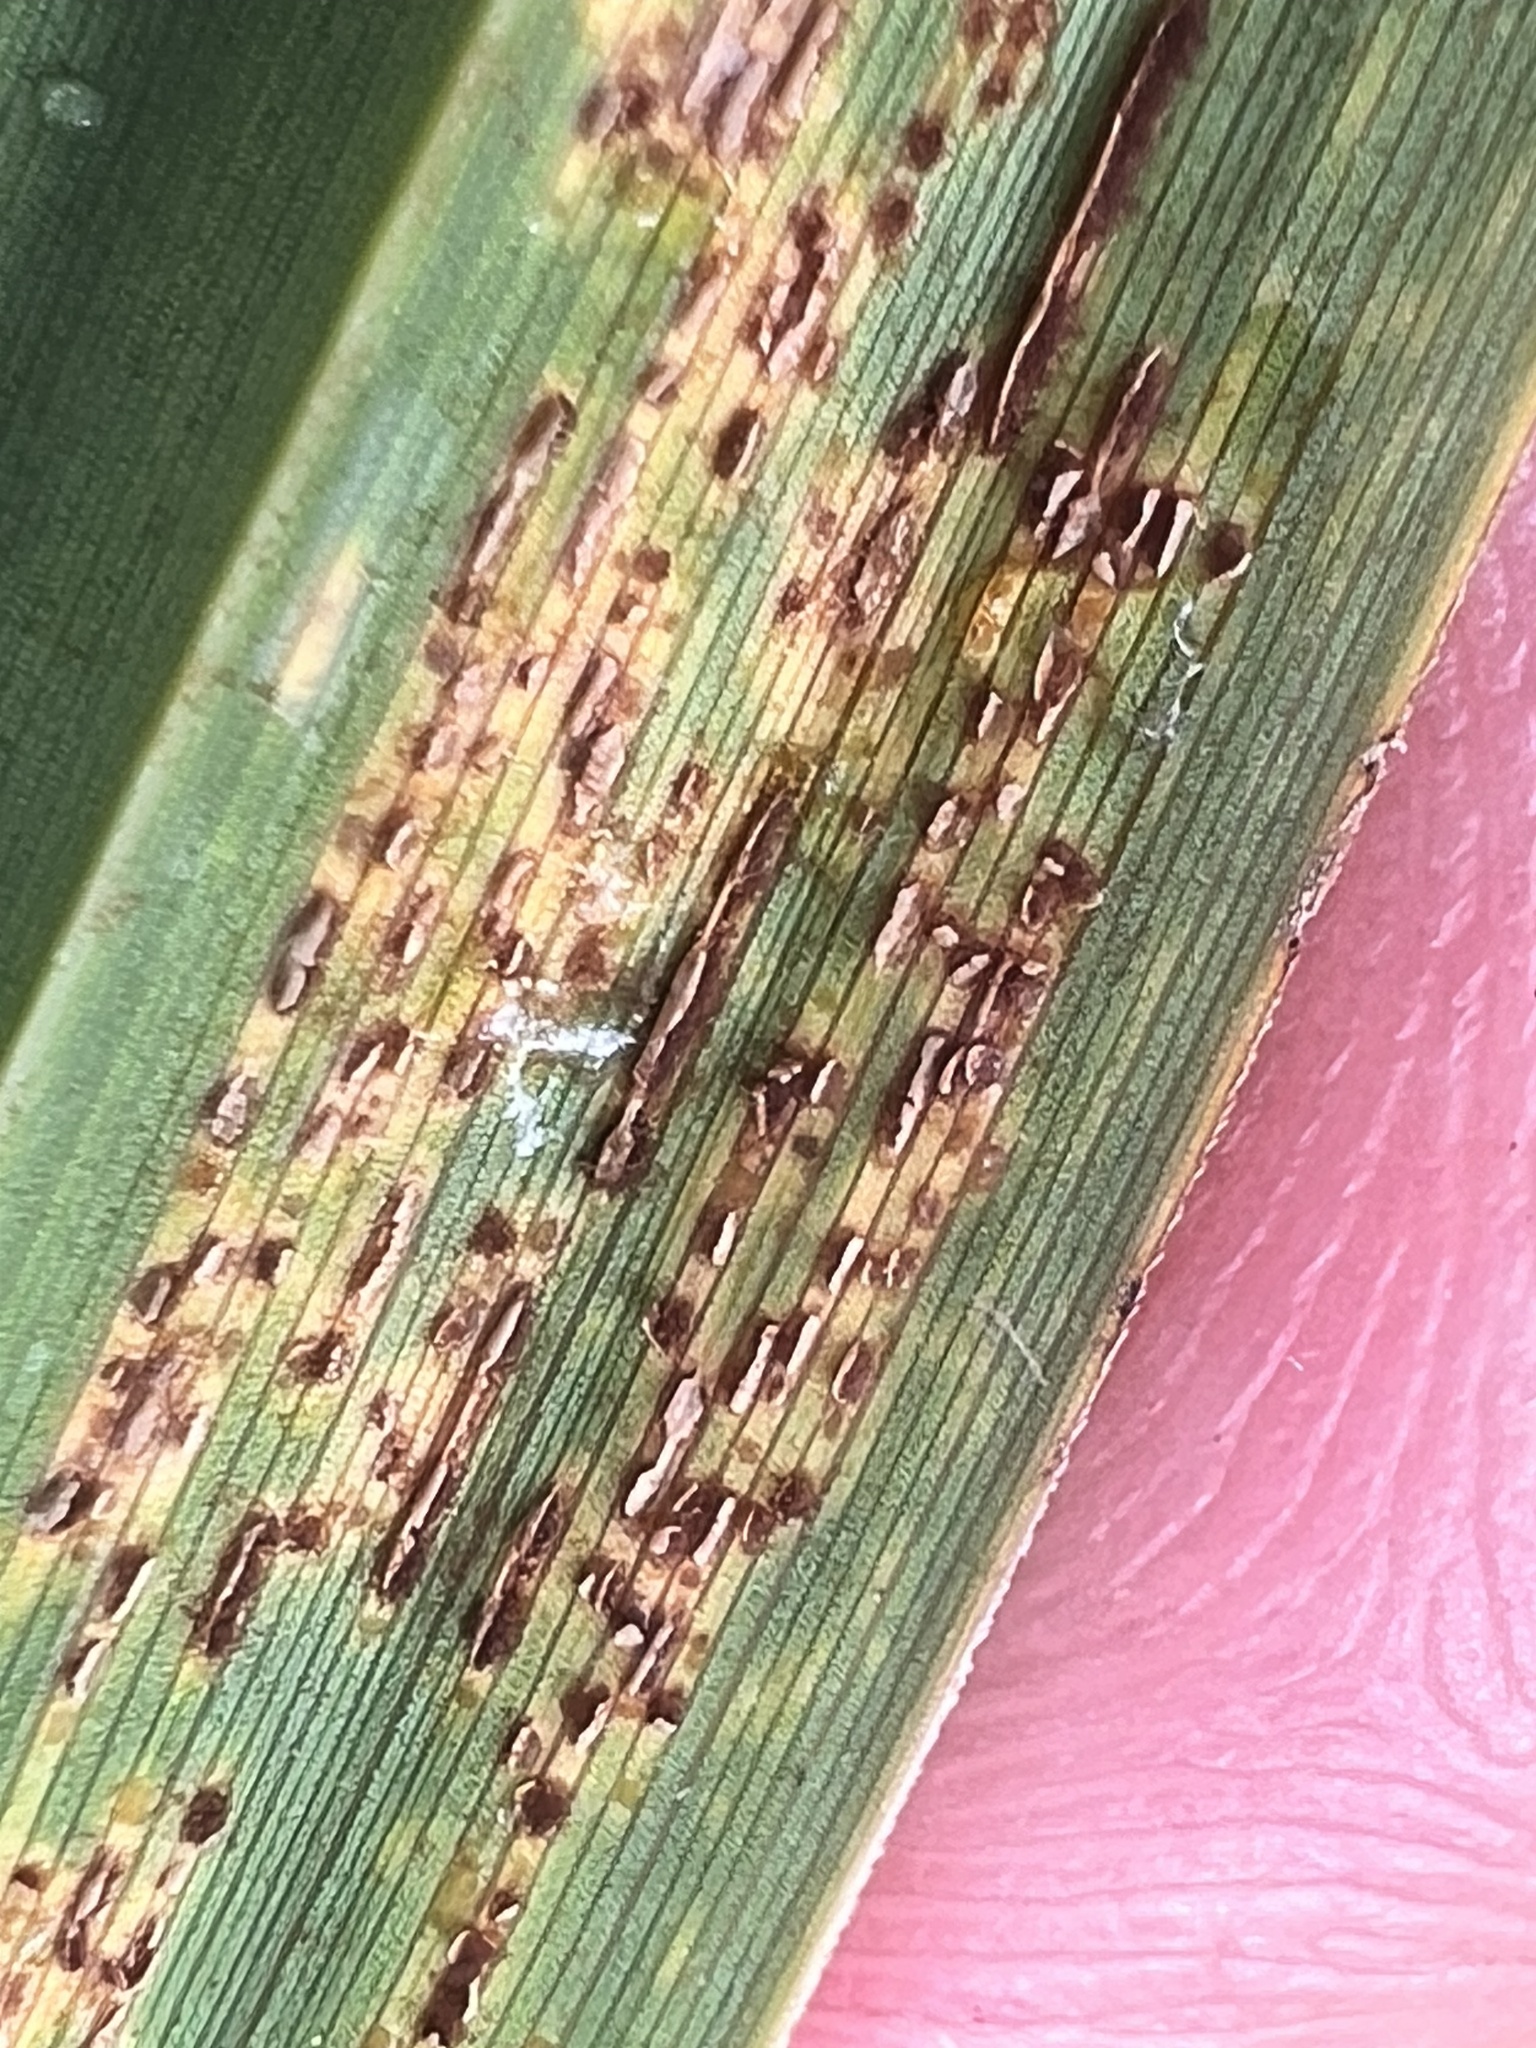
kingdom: Fungi
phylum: Basidiomycota
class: Pucciniomycetes
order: Pucciniales
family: Pucciniaceae
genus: Puccinia
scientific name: Puccinia caricina
